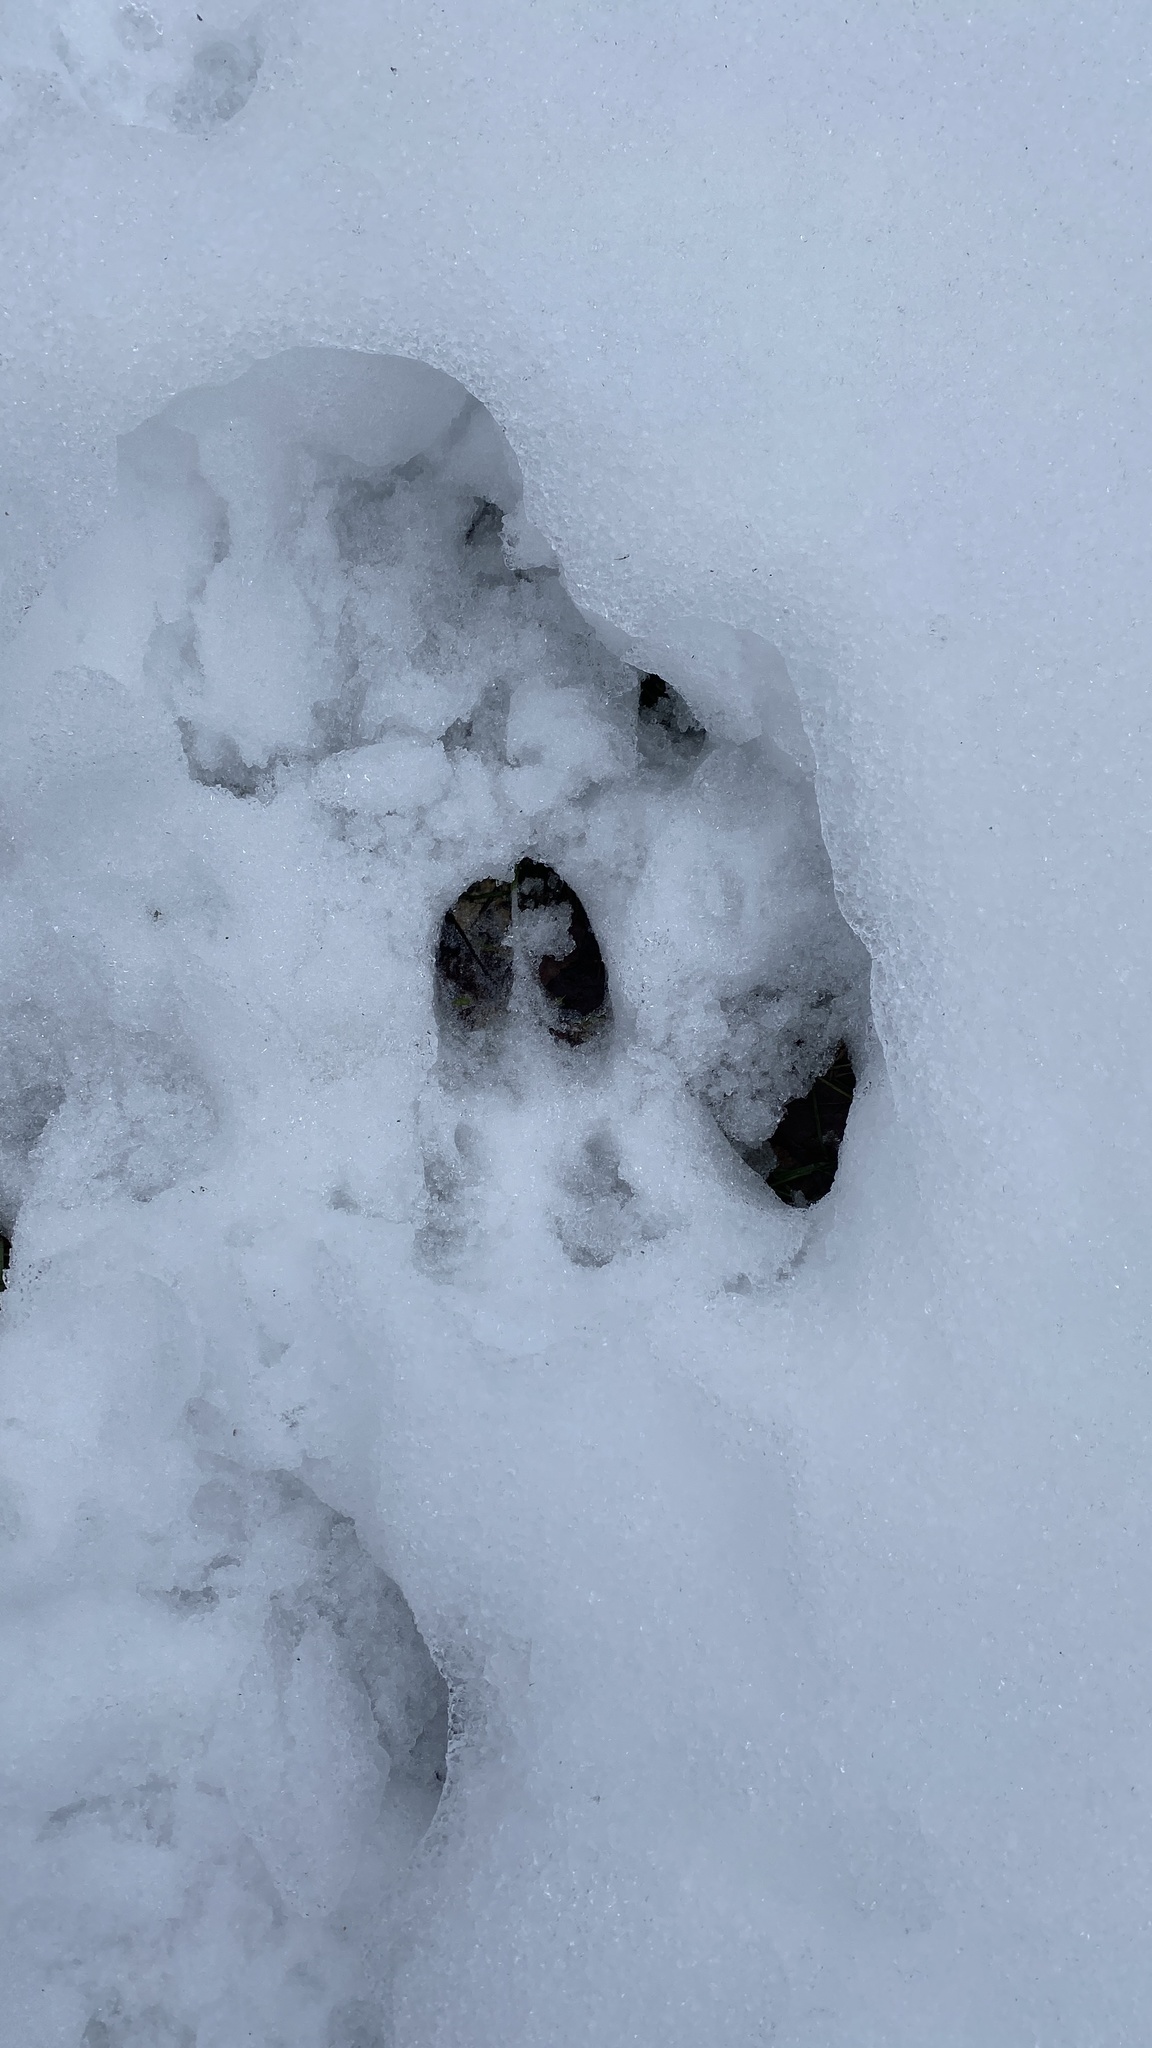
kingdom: Animalia
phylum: Chordata
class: Mammalia
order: Artiodactyla
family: Cervidae
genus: Odocoileus
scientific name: Odocoileus virginianus
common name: White-tailed deer
